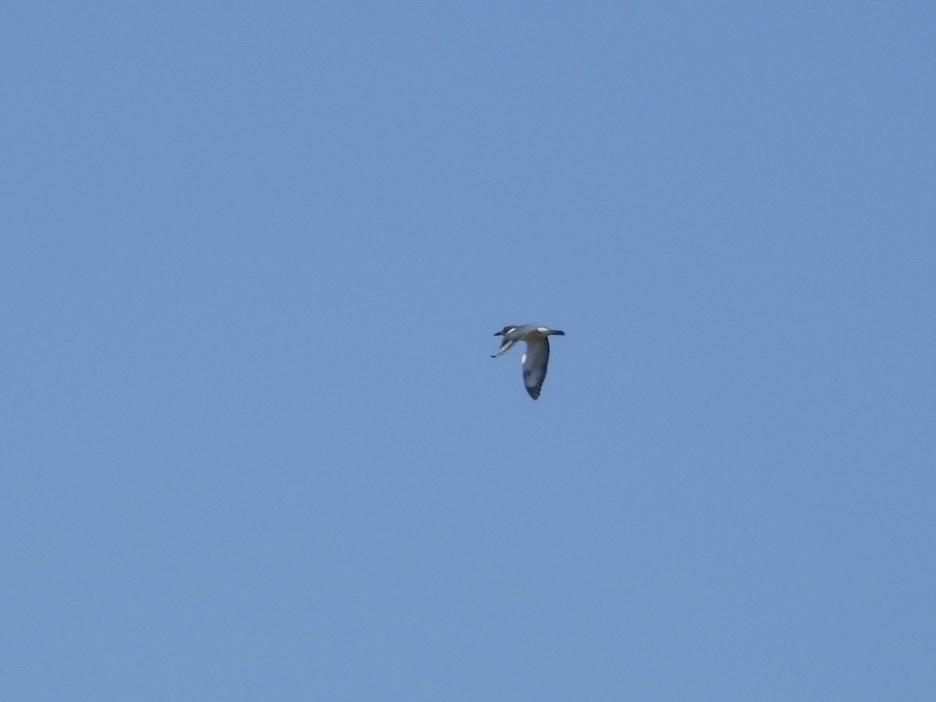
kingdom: Animalia
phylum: Chordata
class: Aves
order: Coraciiformes
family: Alcedinidae
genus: Megaceryle
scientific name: Megaceryle alcyon
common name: Belted kingfisher
